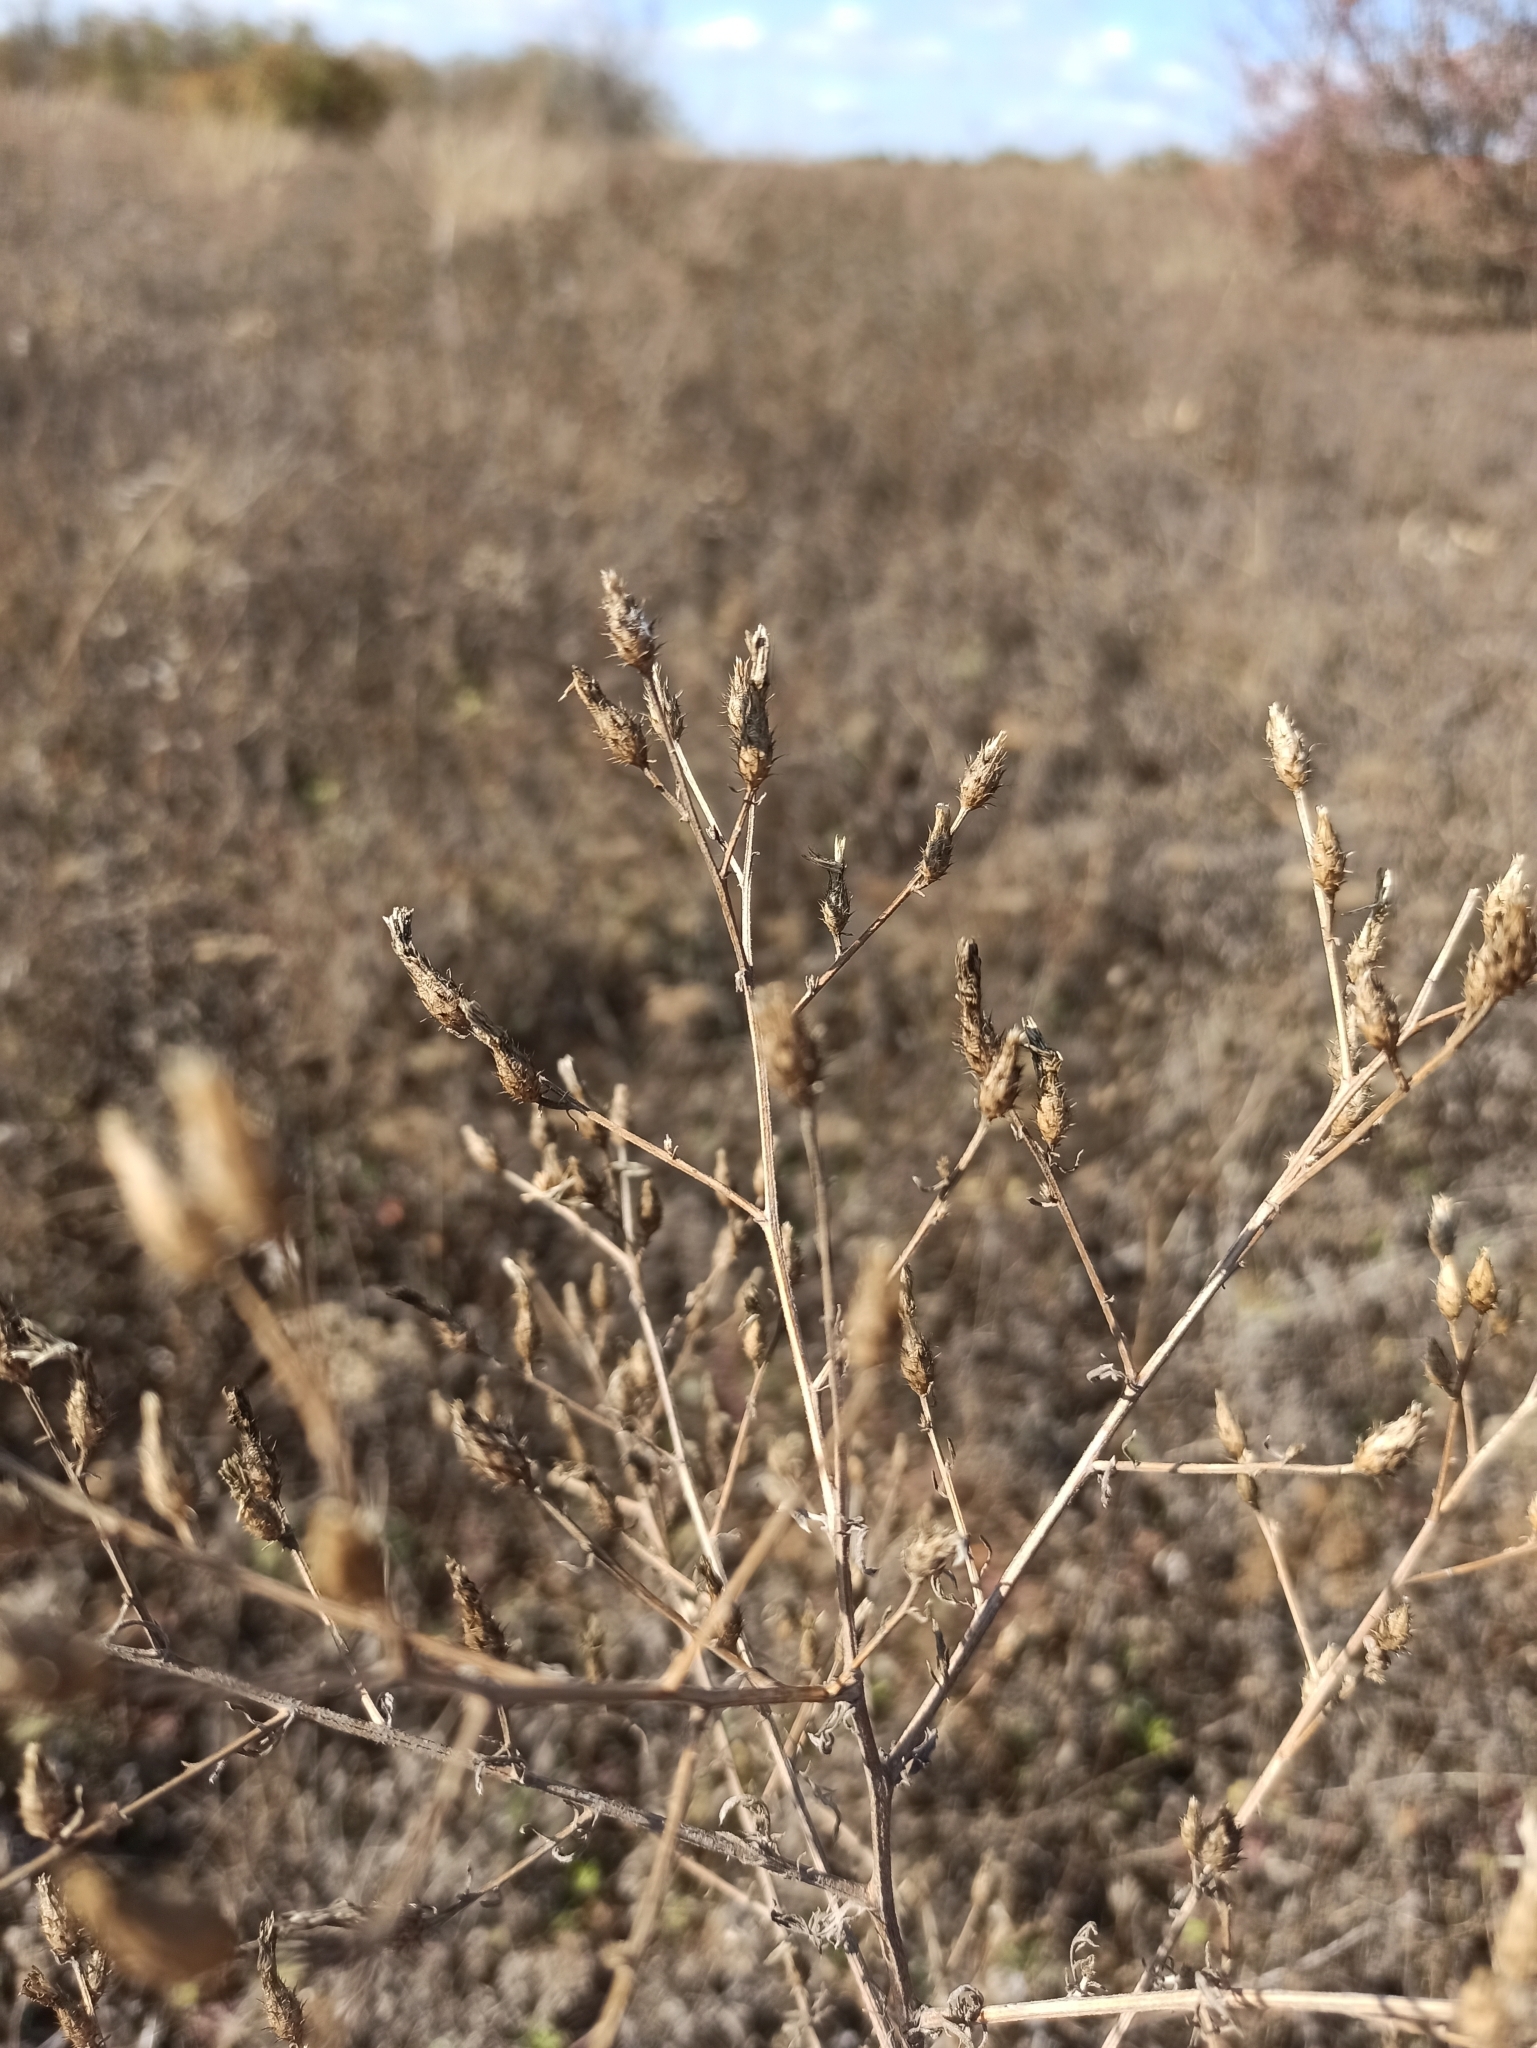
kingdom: Plantae
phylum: Tracheophyta
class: Magnoliopsida
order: Asterales
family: Asteraceae
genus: Centaurea
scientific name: Centaurea diffusa
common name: Diffuse knapweed
